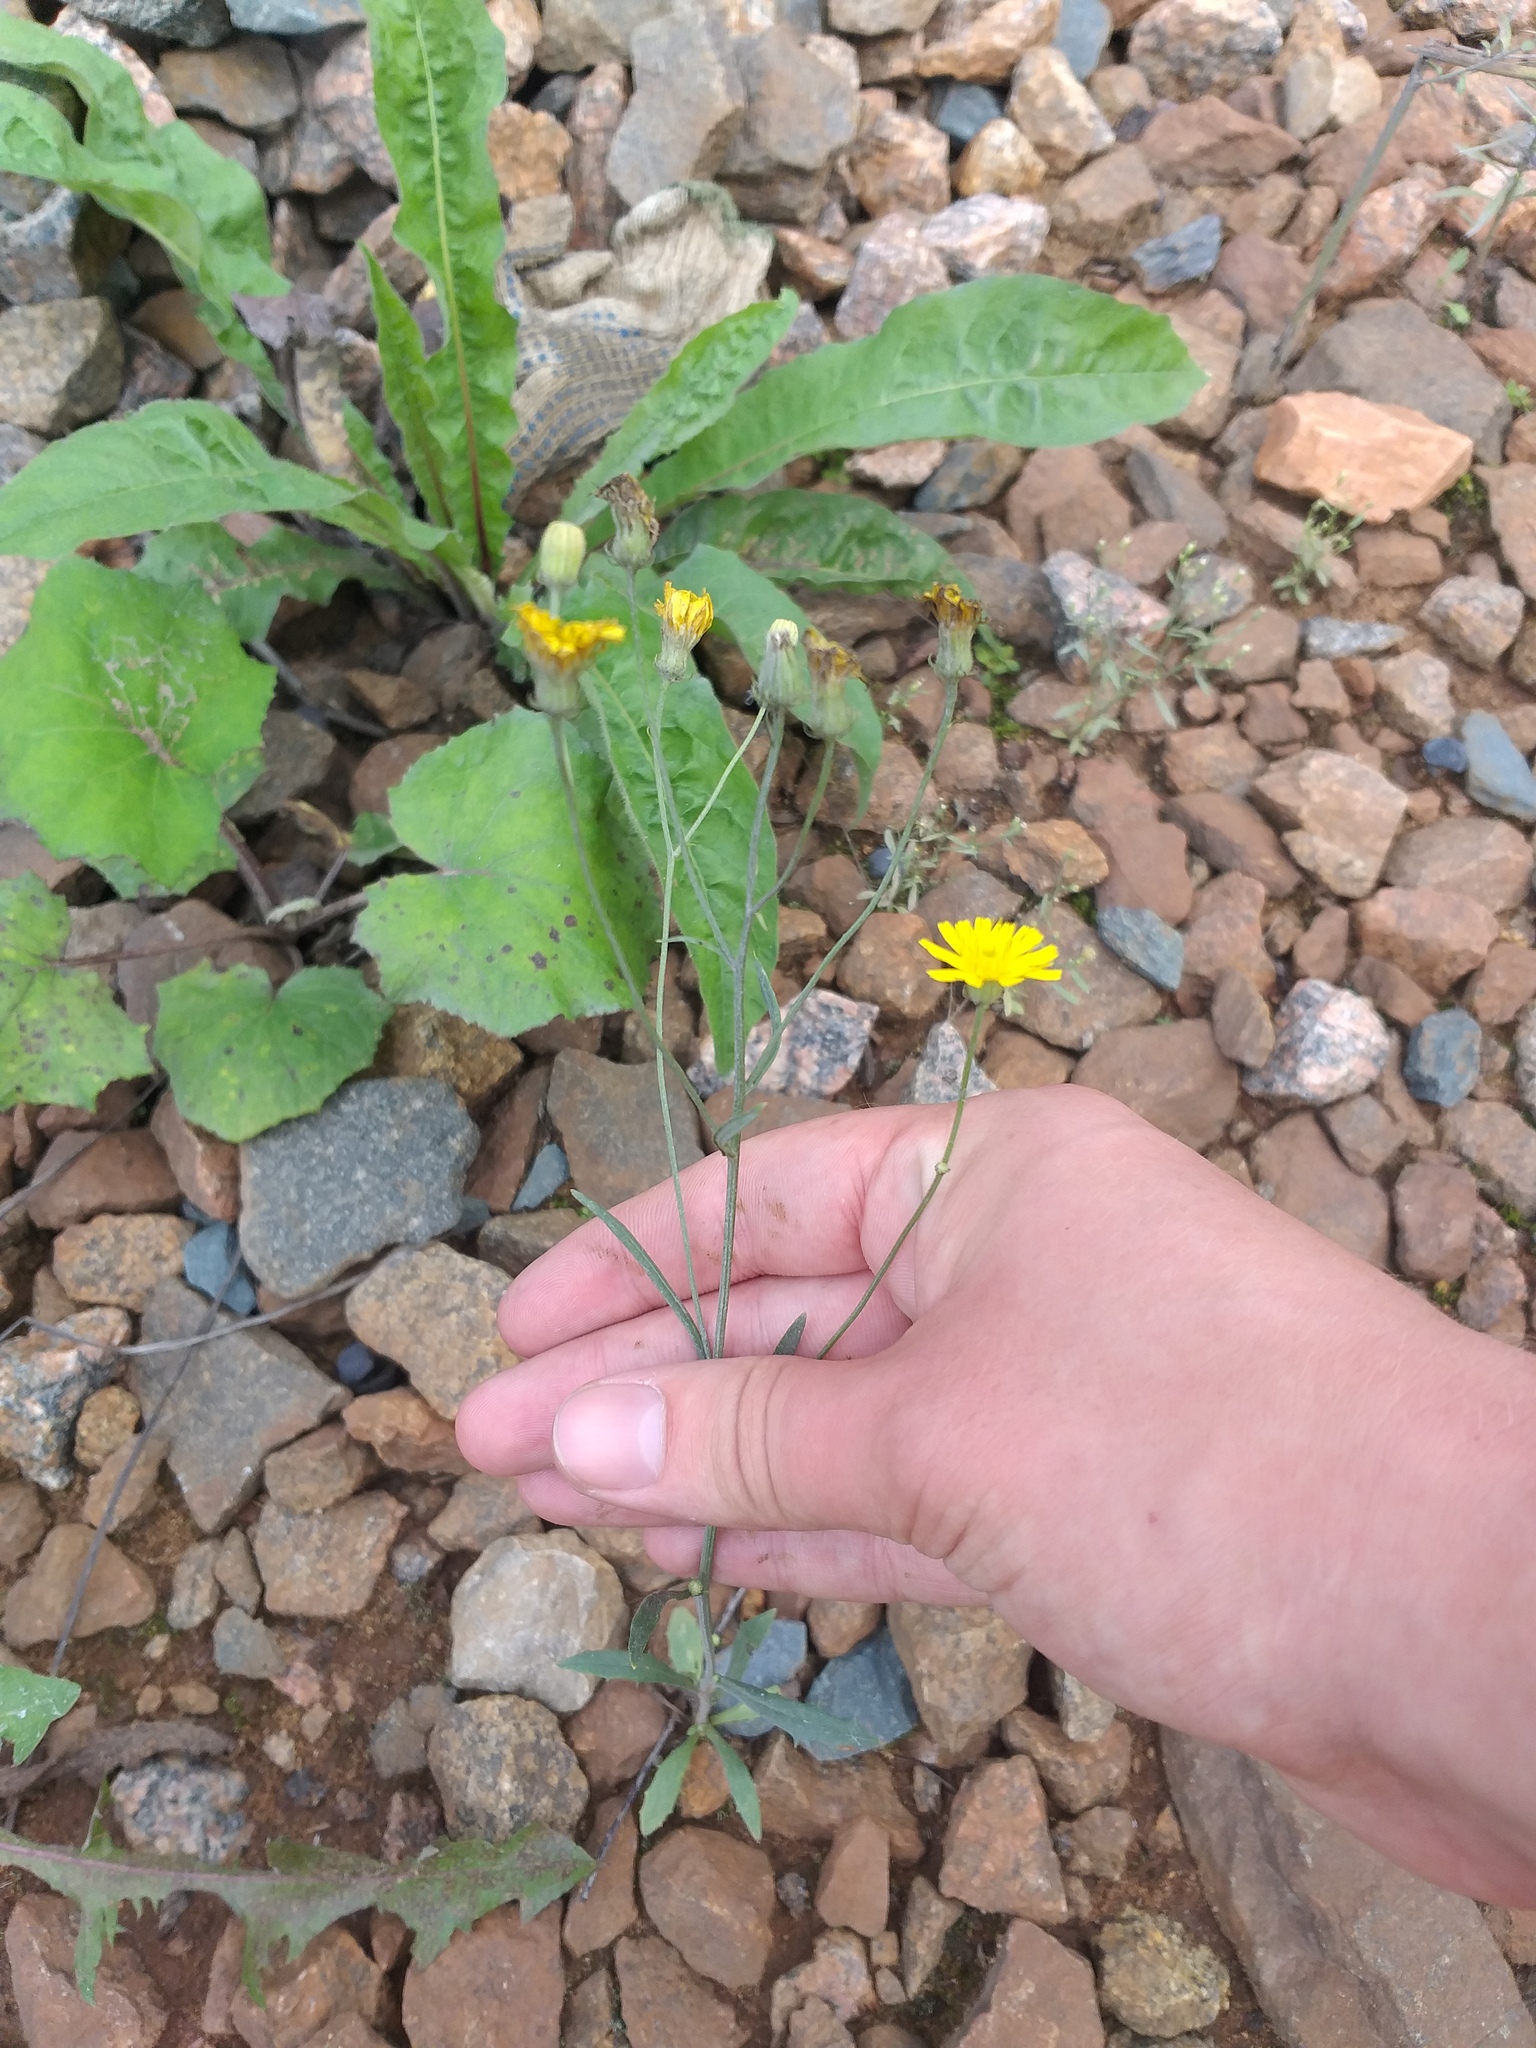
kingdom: Plantae
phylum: Tracheophyta
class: Magnoliopsida
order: Asterales
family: Asteraceae
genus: Crepis
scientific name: Crepis tectorum
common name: Narrow-leaved hawk's-beard
